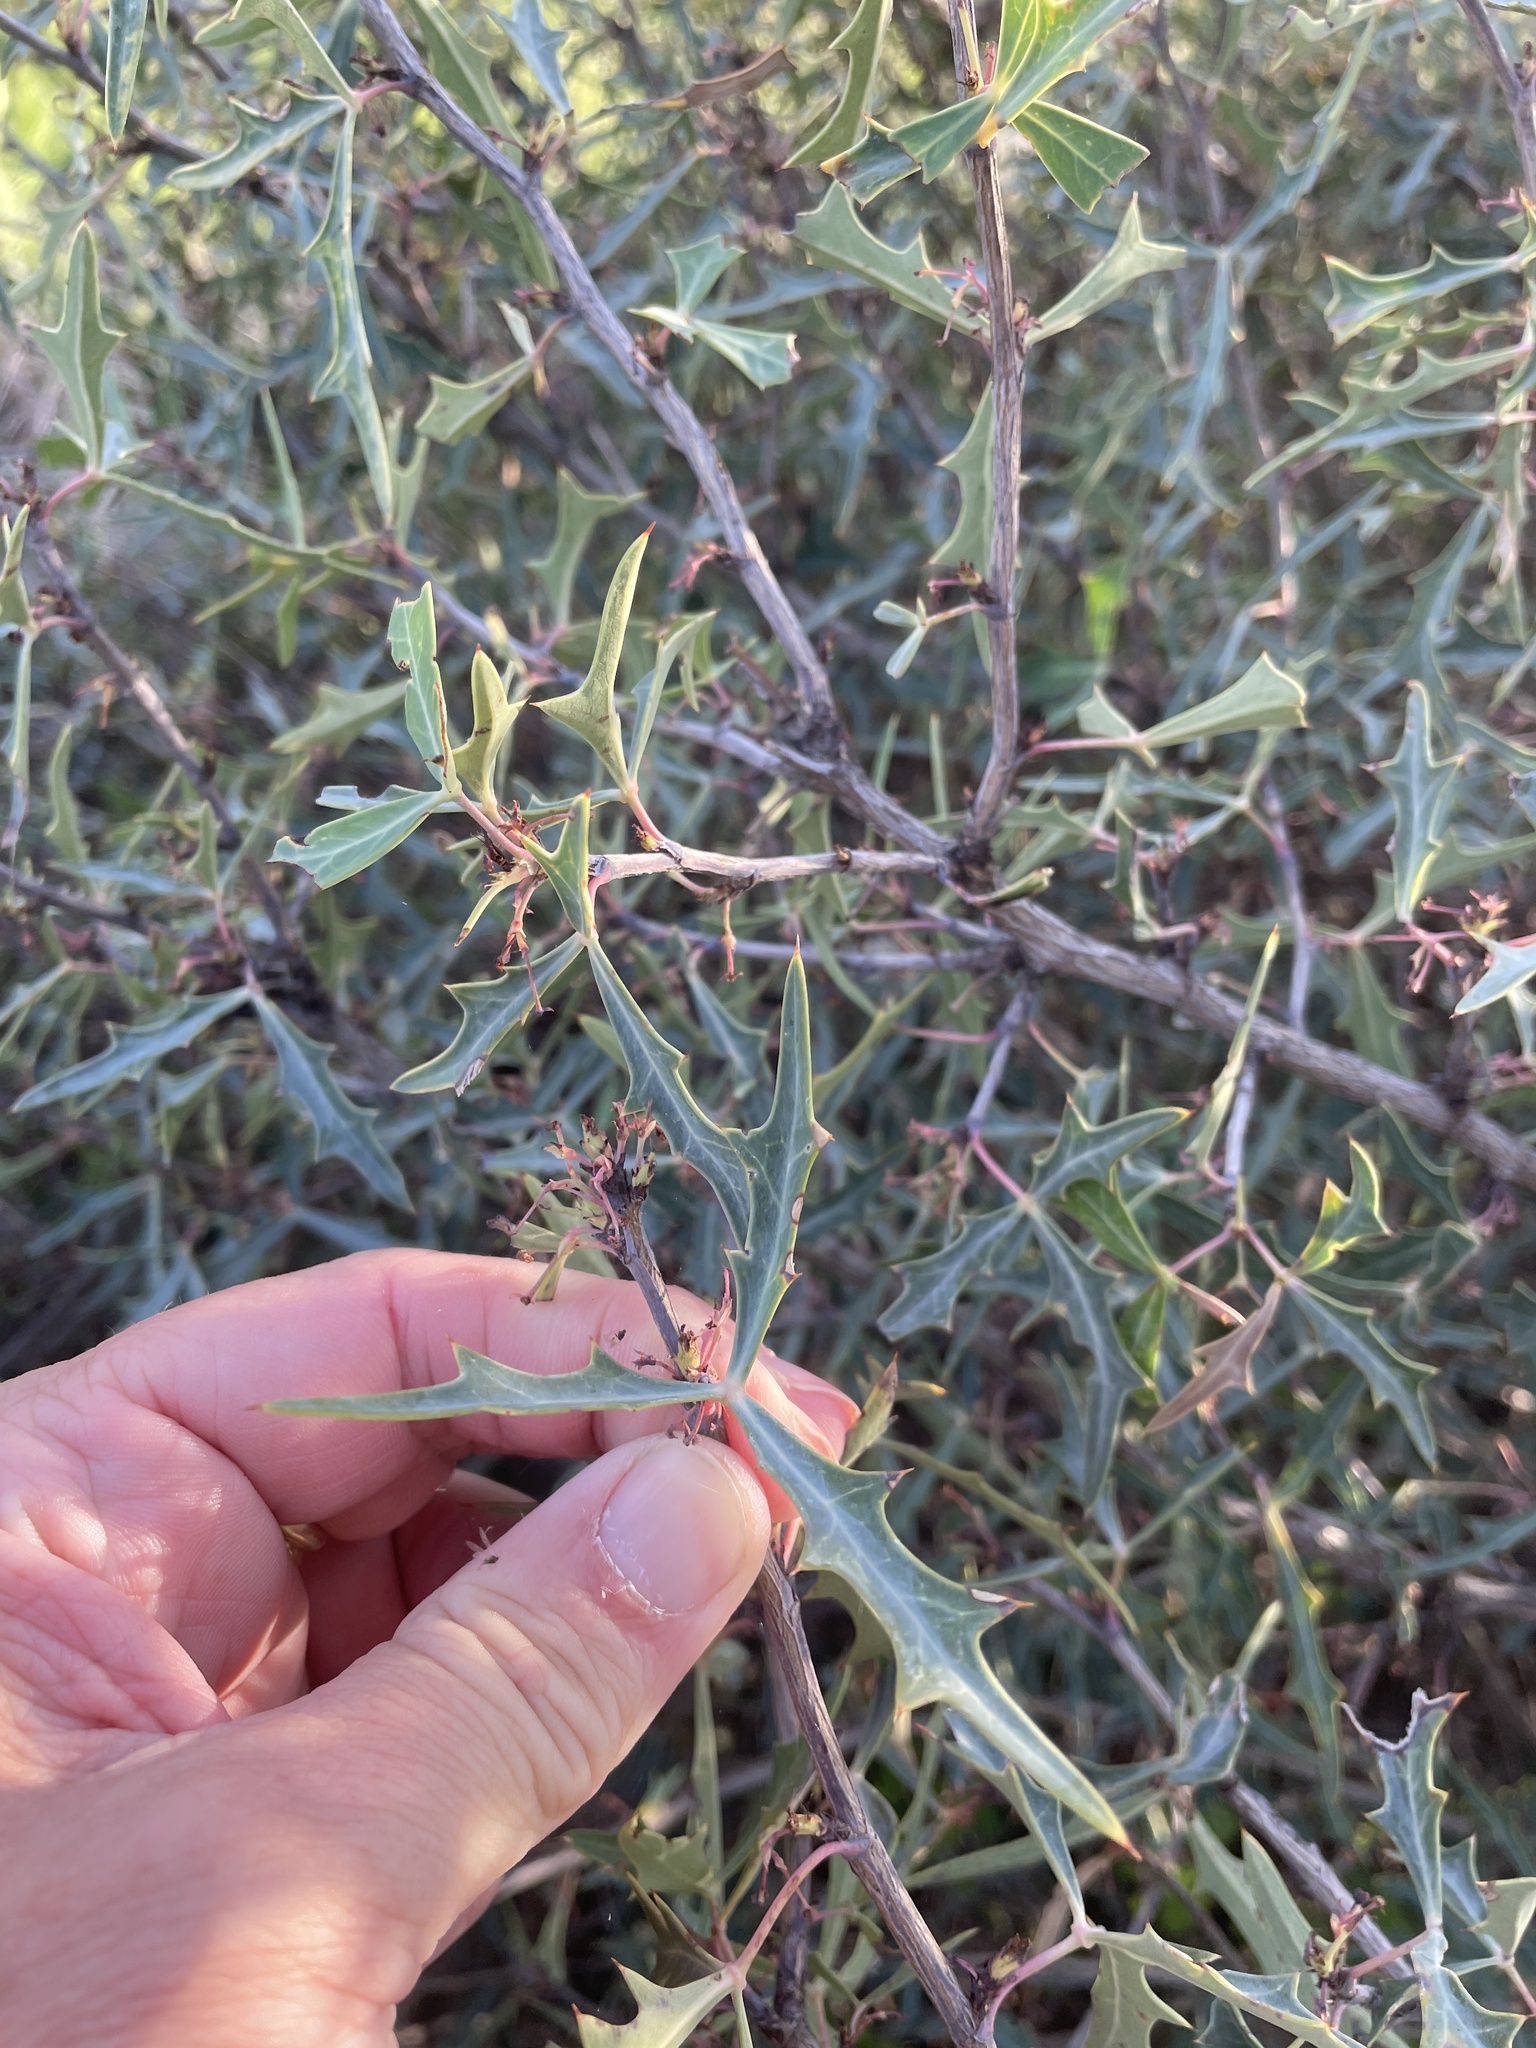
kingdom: Plantae
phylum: Tracheophyta
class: Magnoliopsida
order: Ranunculales
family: Berberidaceae
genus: Alloberberis
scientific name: Alloberberis trifoliolata
